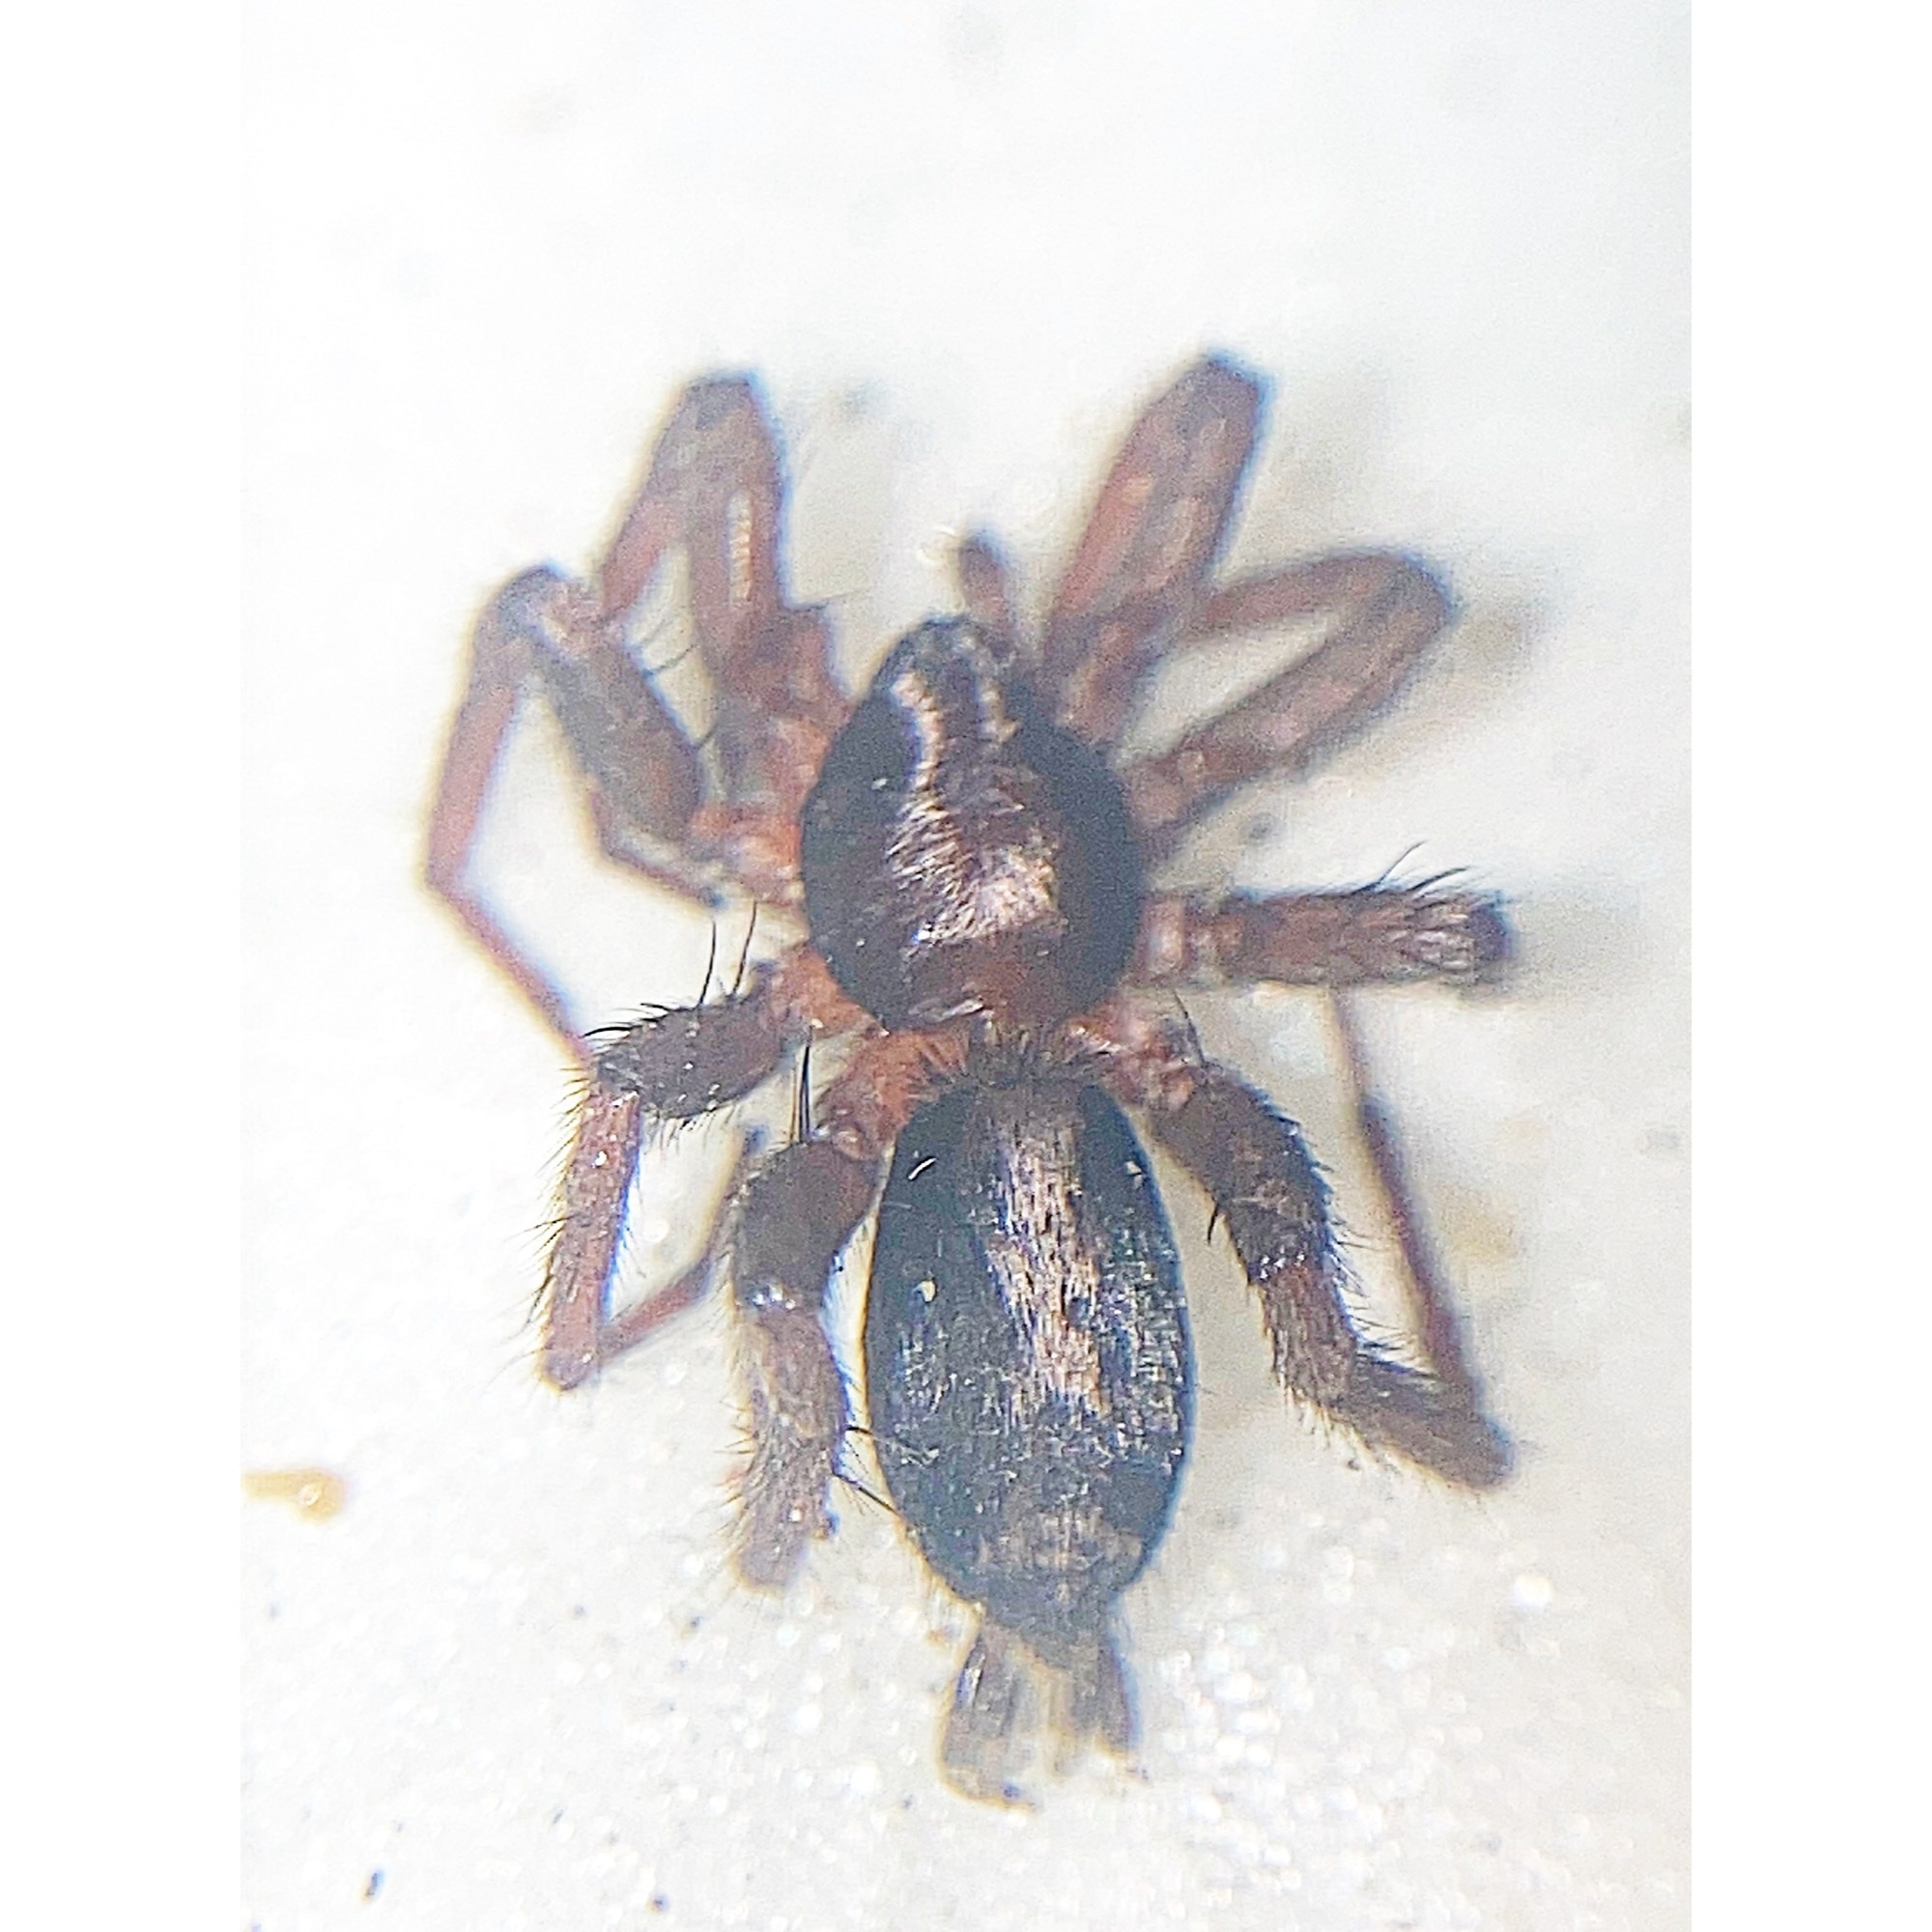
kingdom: Animalia
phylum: Arthropoda
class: Arachnida
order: Araneae
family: Gnaphosidae
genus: Herpyllus
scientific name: Herpyllus ecclesiasticus
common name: Eastern parson spider
